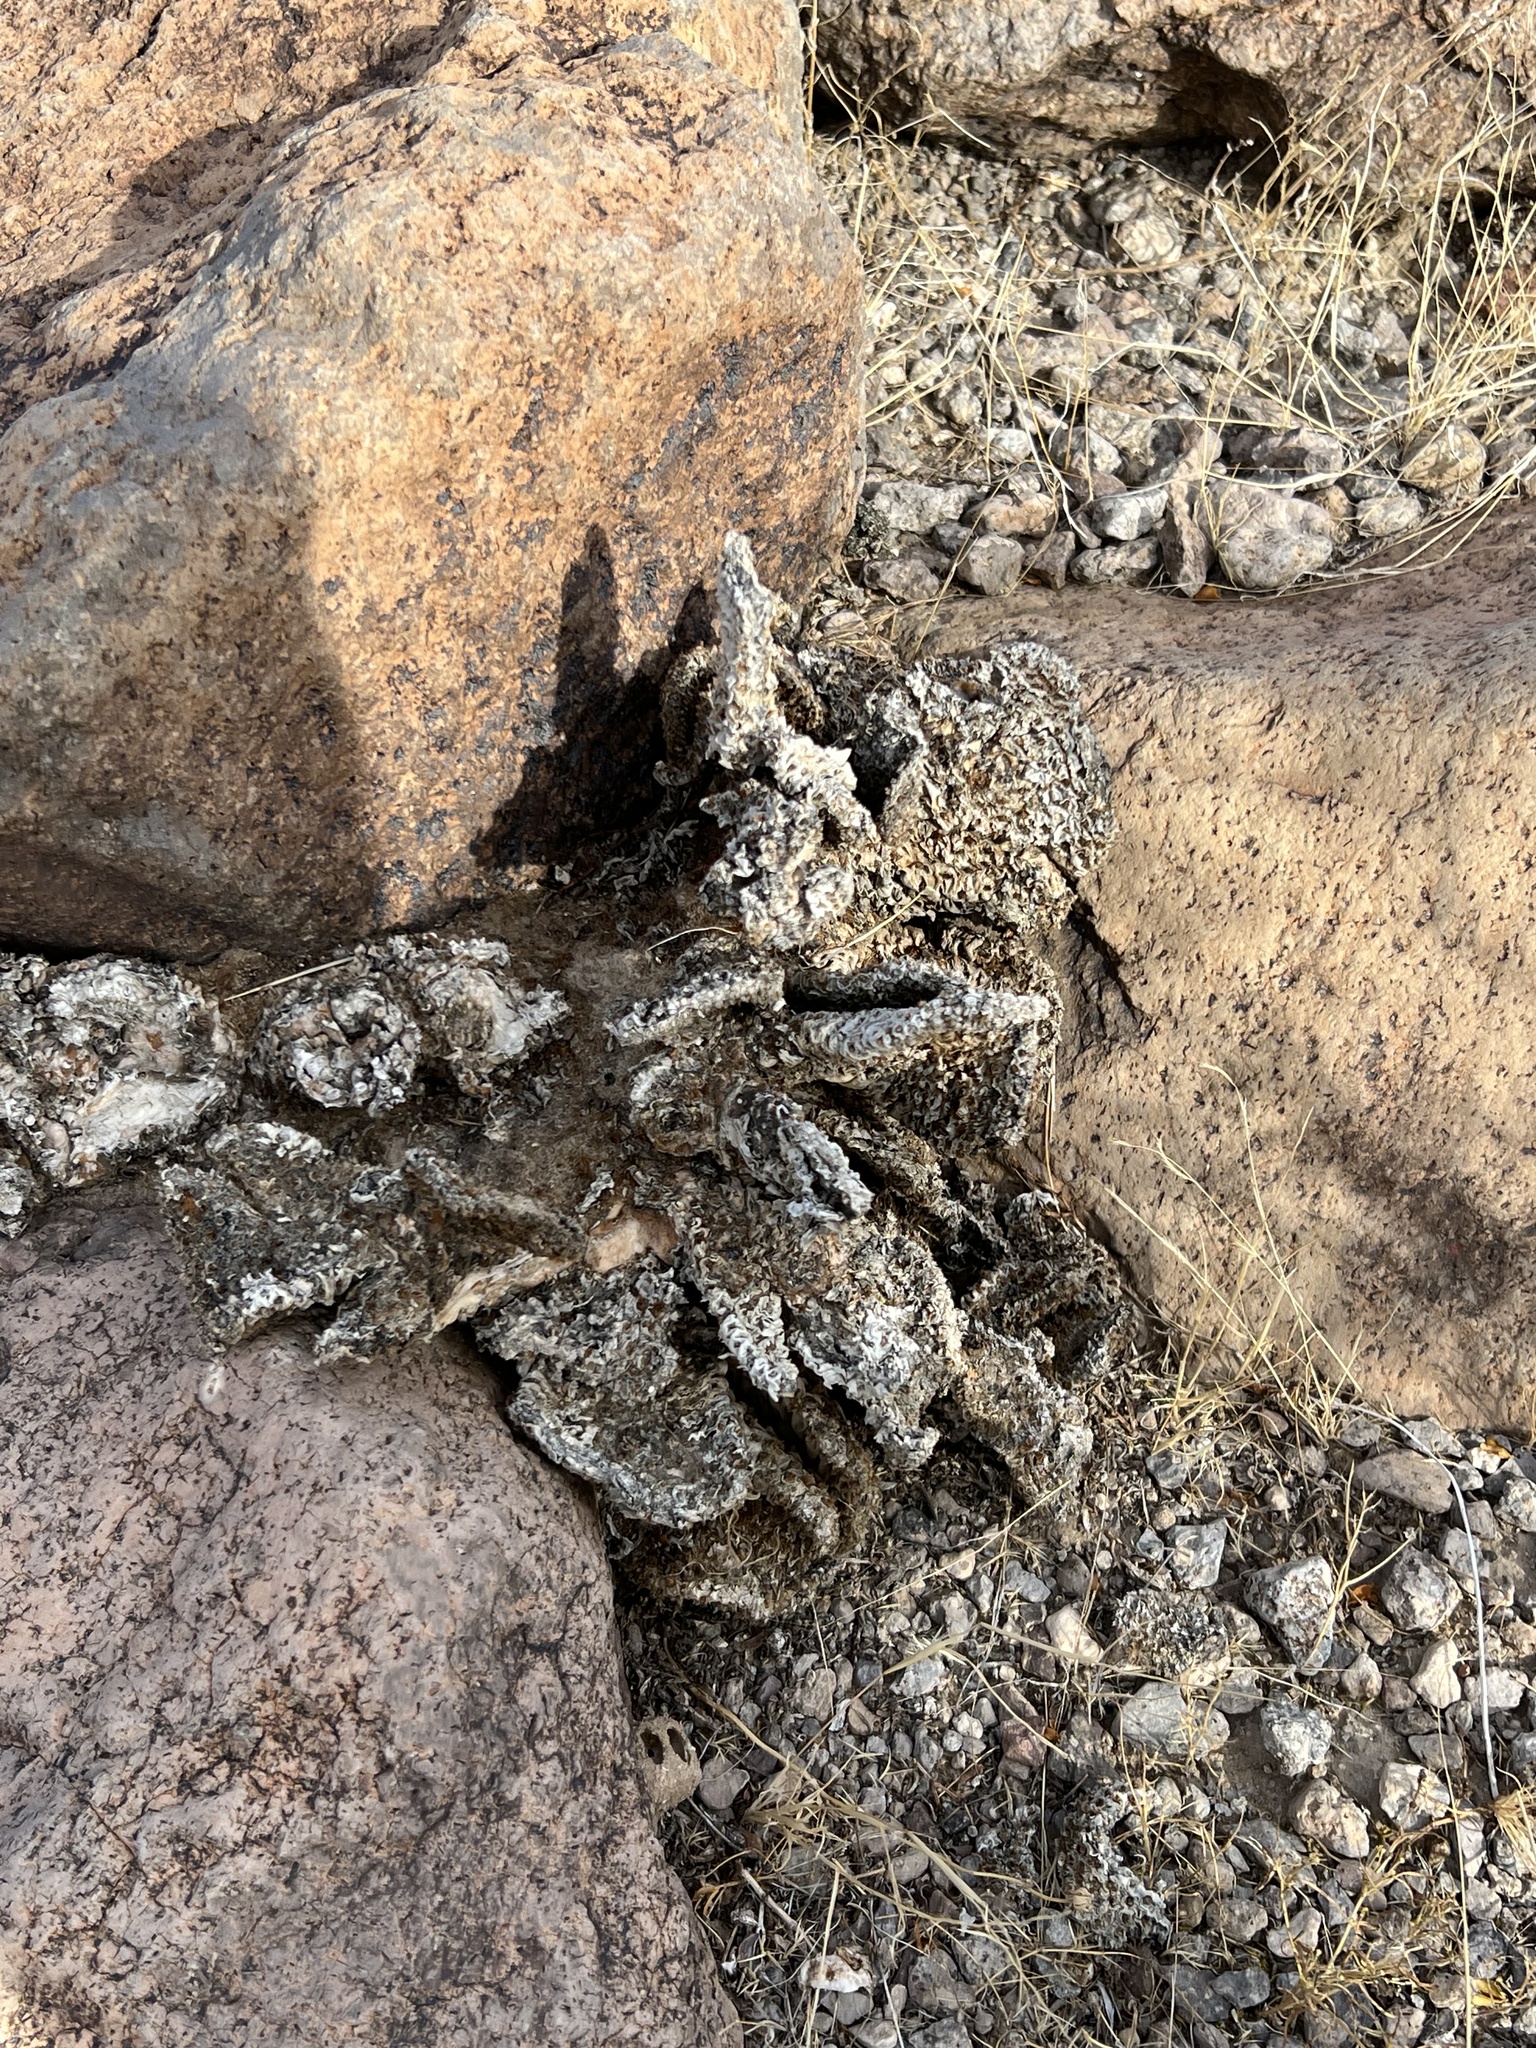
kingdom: Plantae
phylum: Tracheophyta
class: Magnoliopsida
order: Caryophyllales
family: Cactaceae
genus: Opuntia
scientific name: Opuntia basilaris
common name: Beavertail prickly-pear
